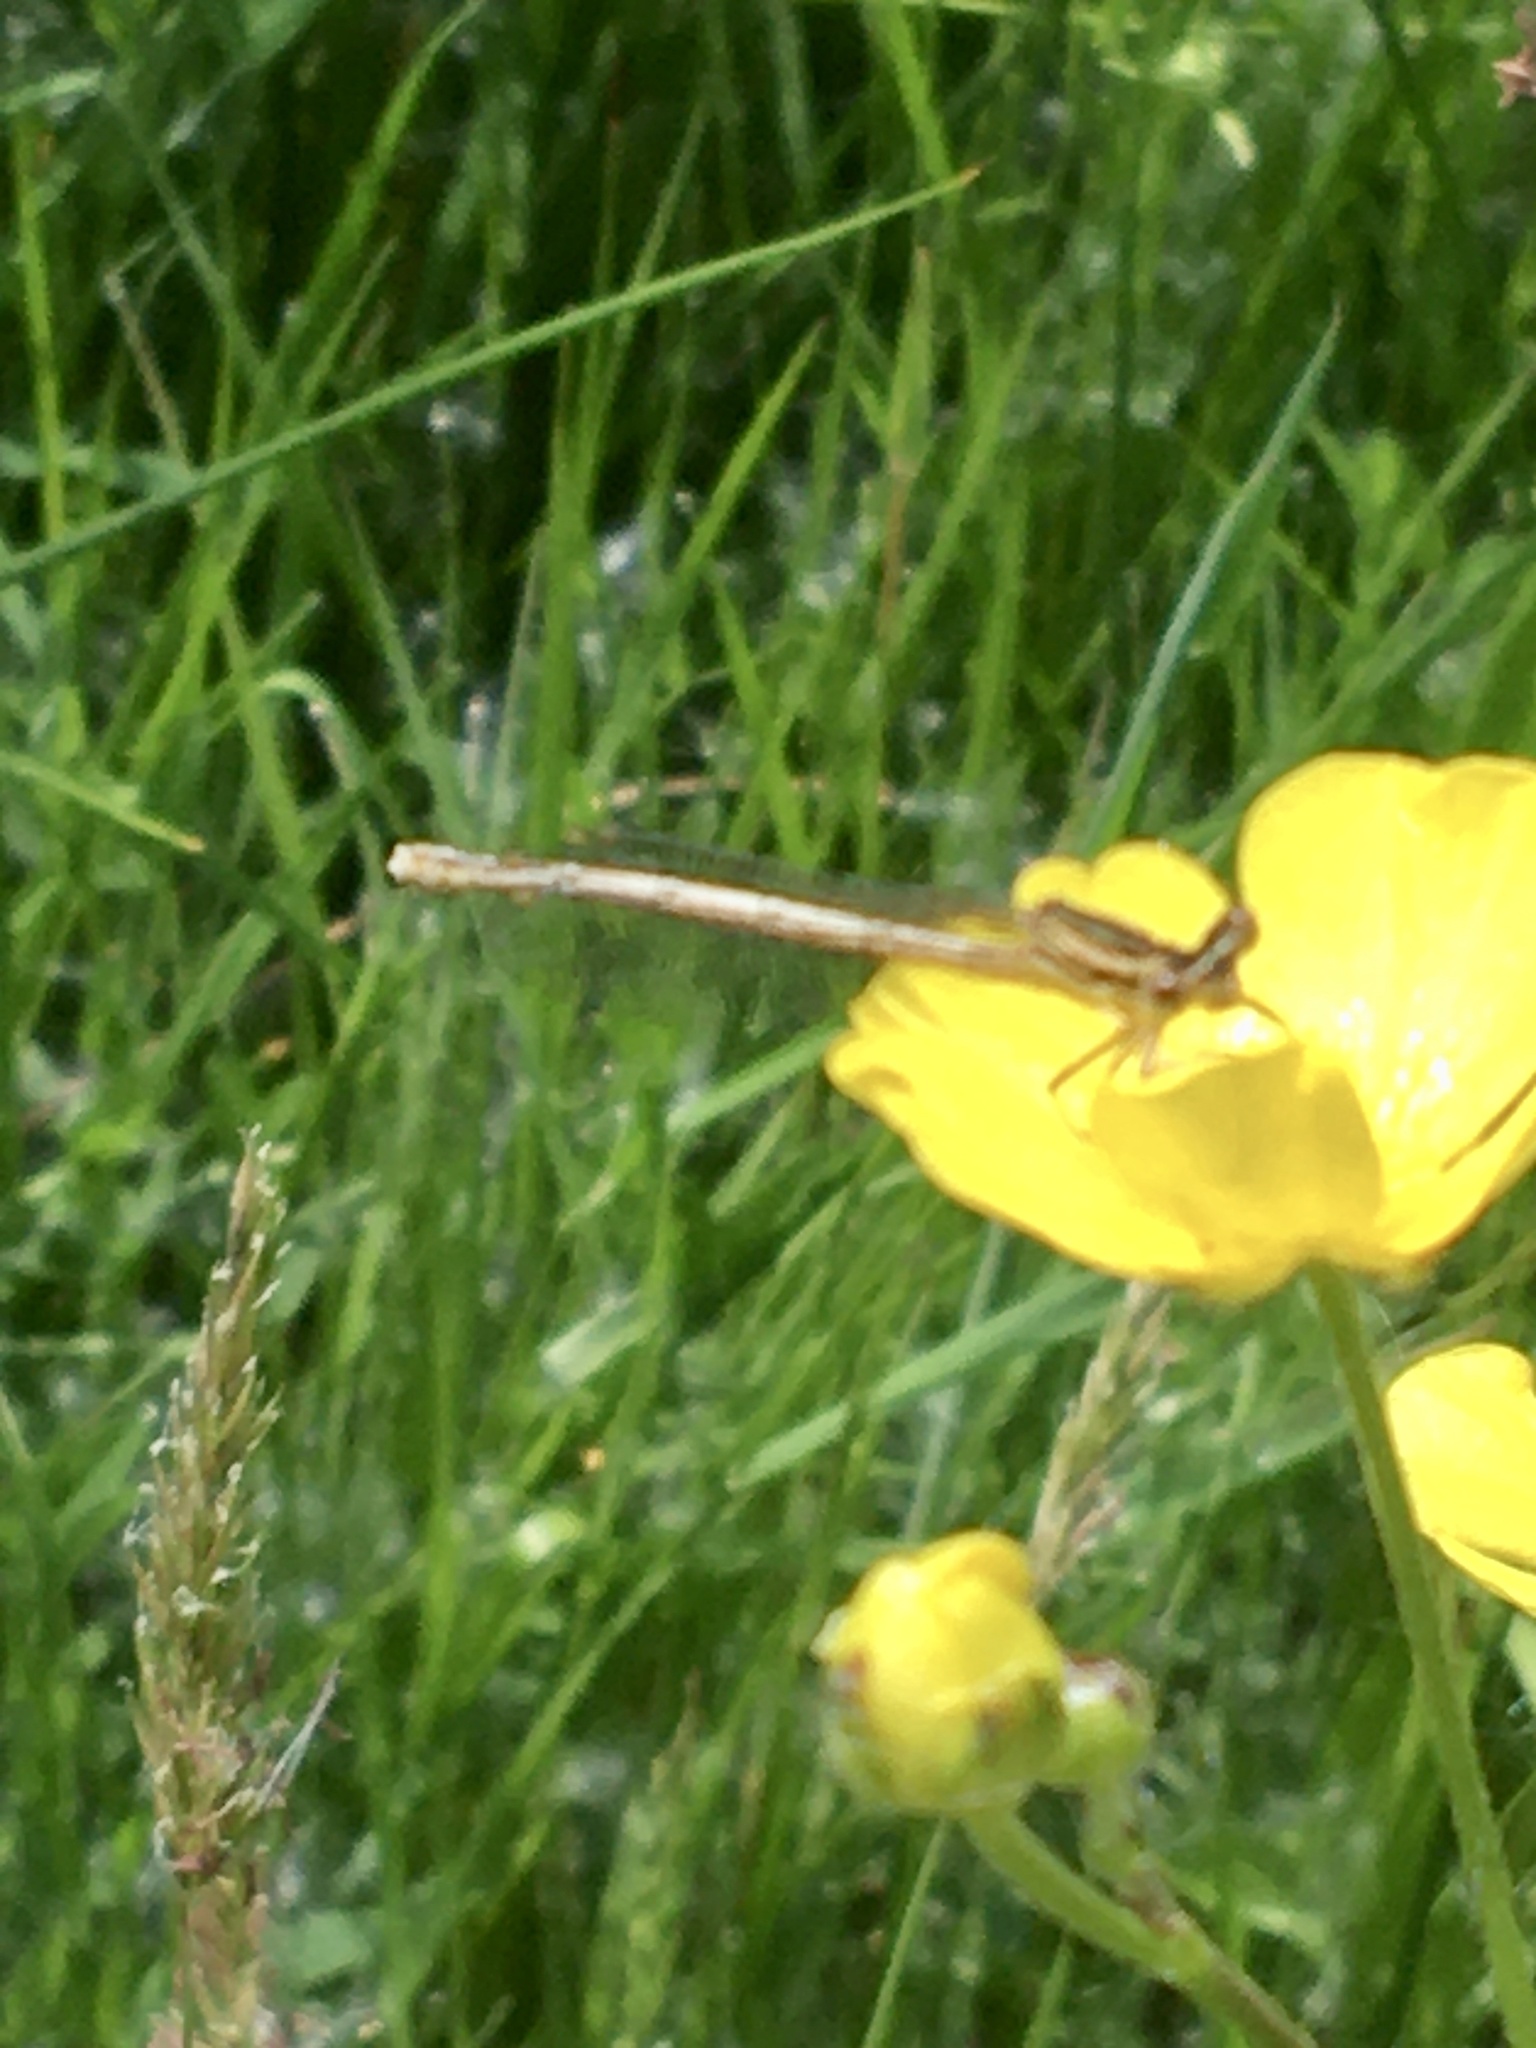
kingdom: Animalia
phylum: Arthropoda
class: Insecta
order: Odonata
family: Platycnemididae
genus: Platycnemis
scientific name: Platycnemis pennipes
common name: White-legged damselfly
